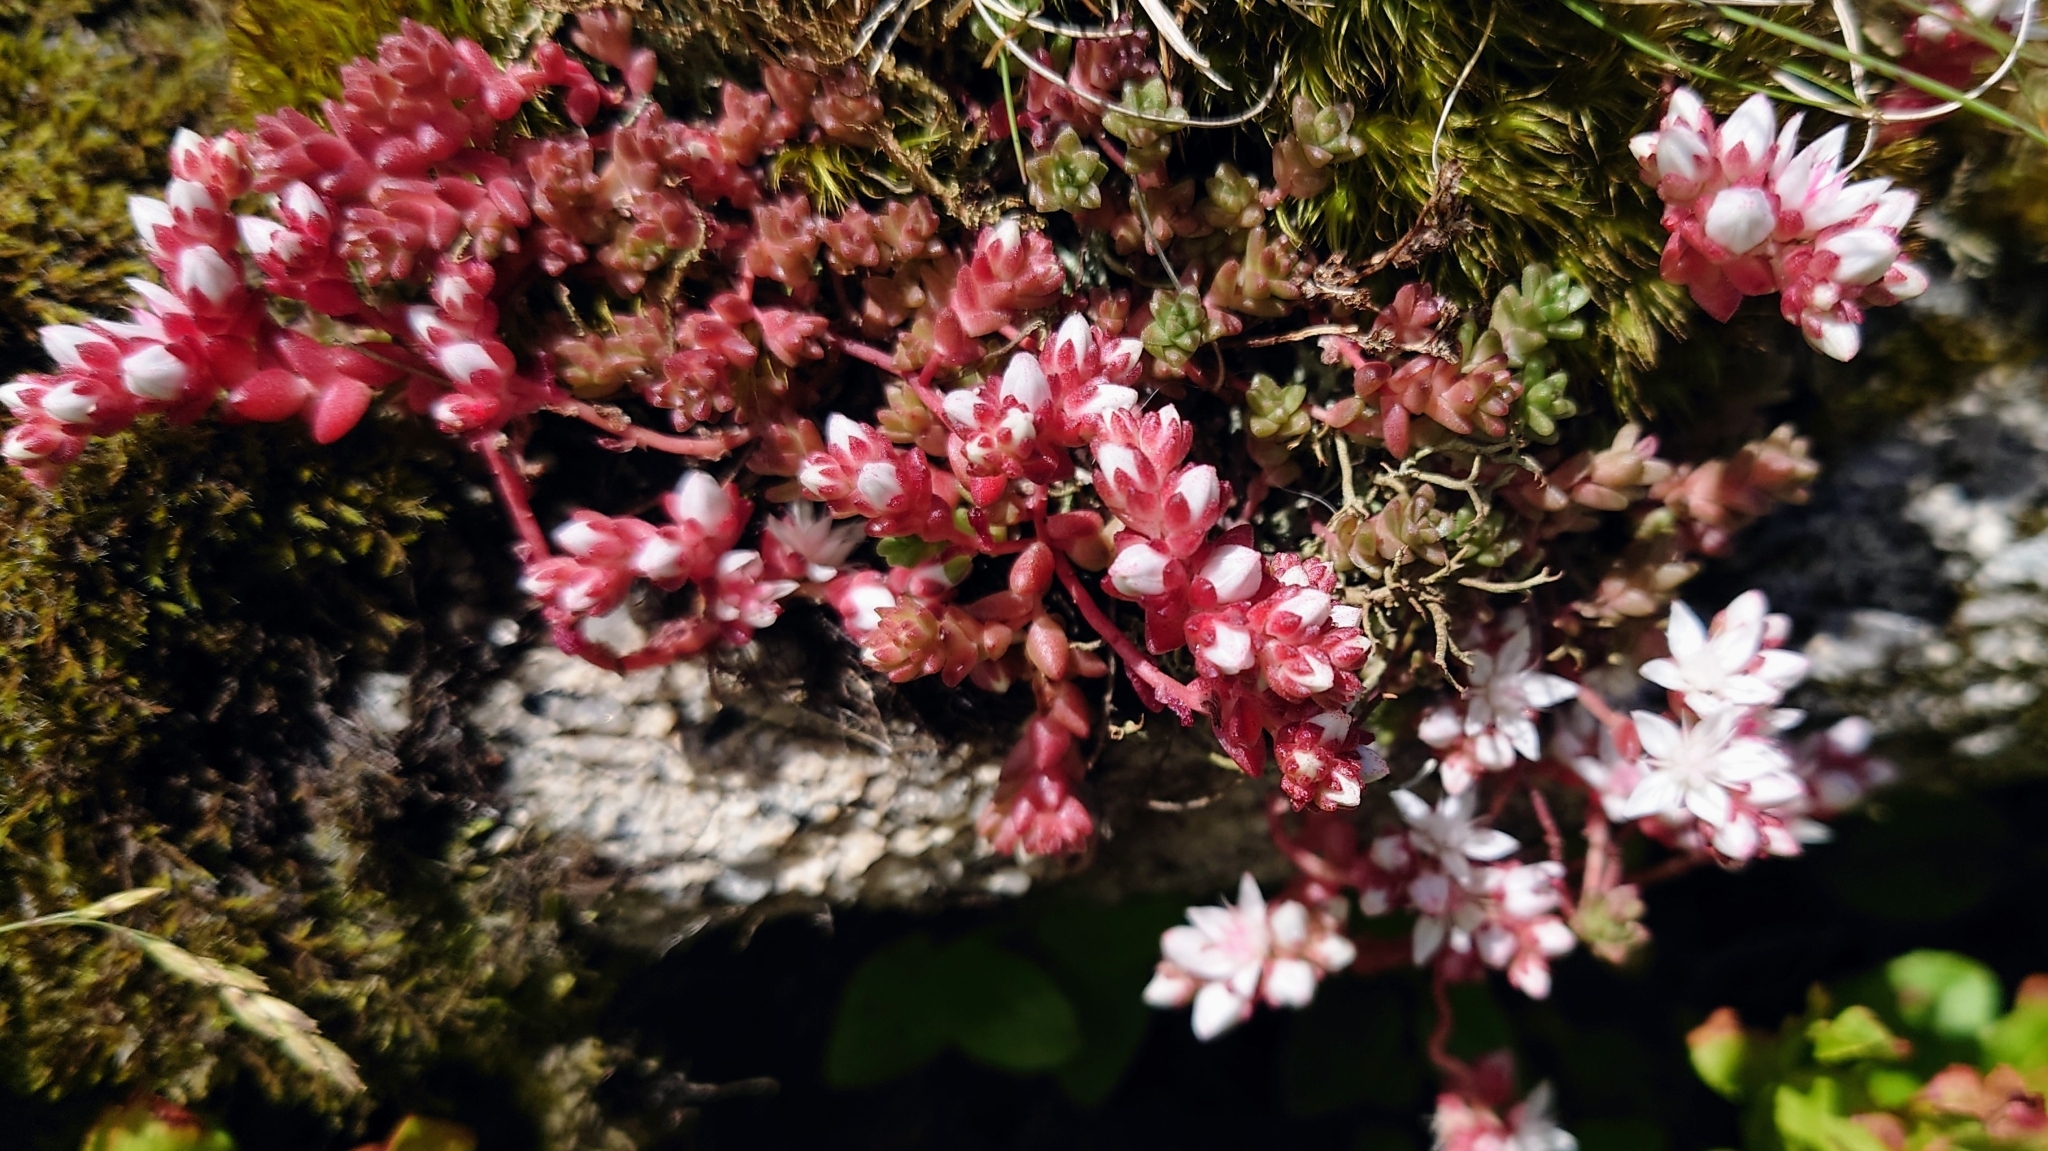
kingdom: Plantae
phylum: Tracheophyta
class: Magnoliopsida
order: Saxifragales
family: Crassulaceae
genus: Sedum
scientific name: Sedum anglicum
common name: English stonecrop
